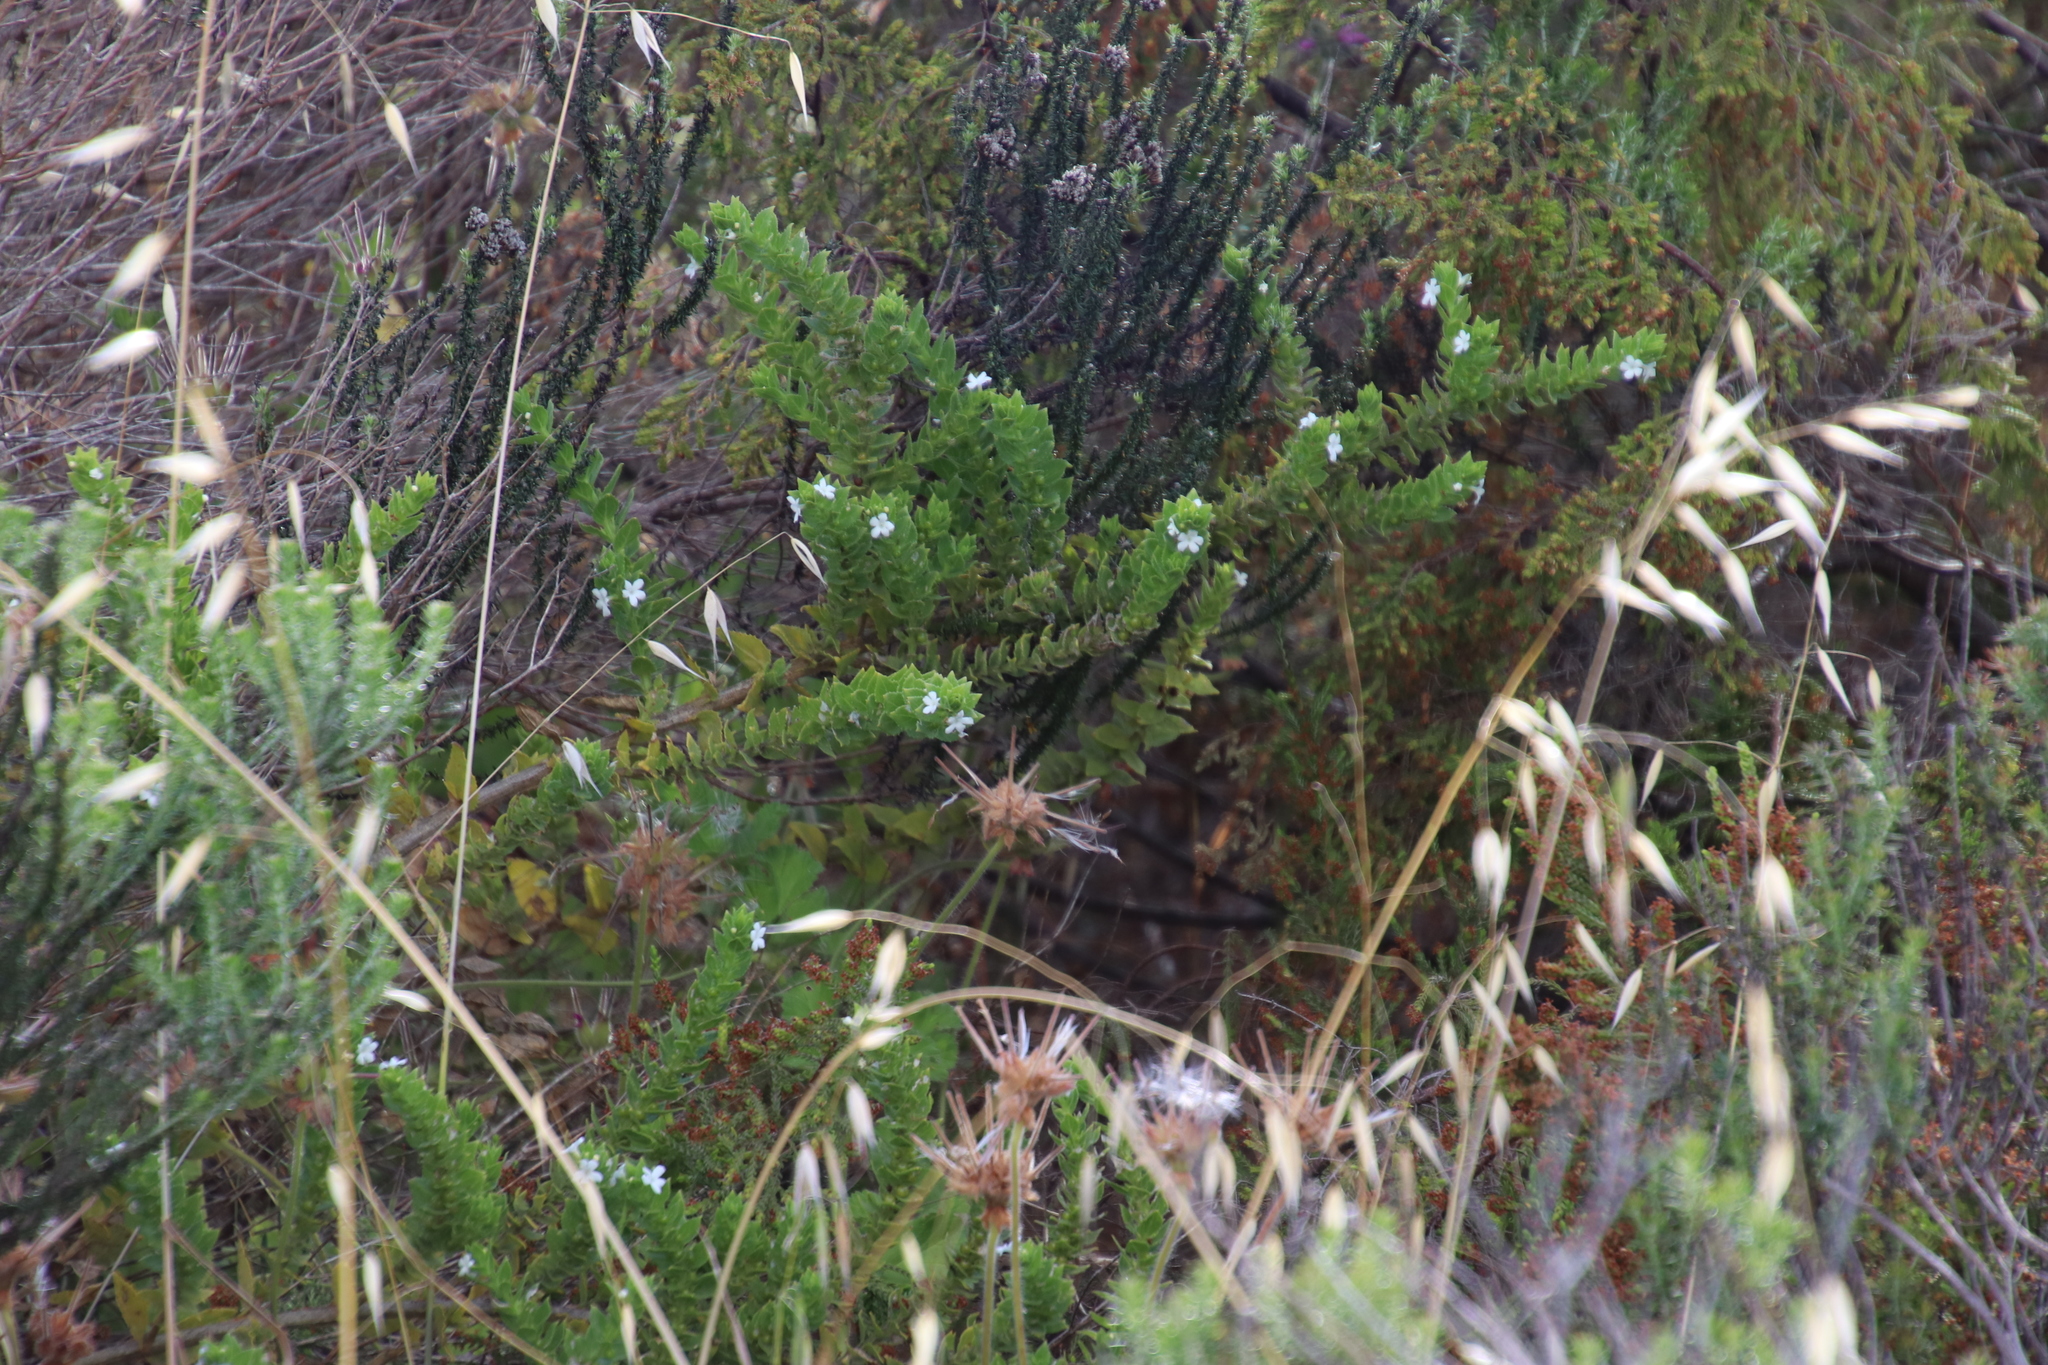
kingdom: Plantae
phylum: Tracheophyta
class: Magnoliopsida
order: Lamiales
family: Scrophulariaceae
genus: Oftia
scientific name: Oftia africana
